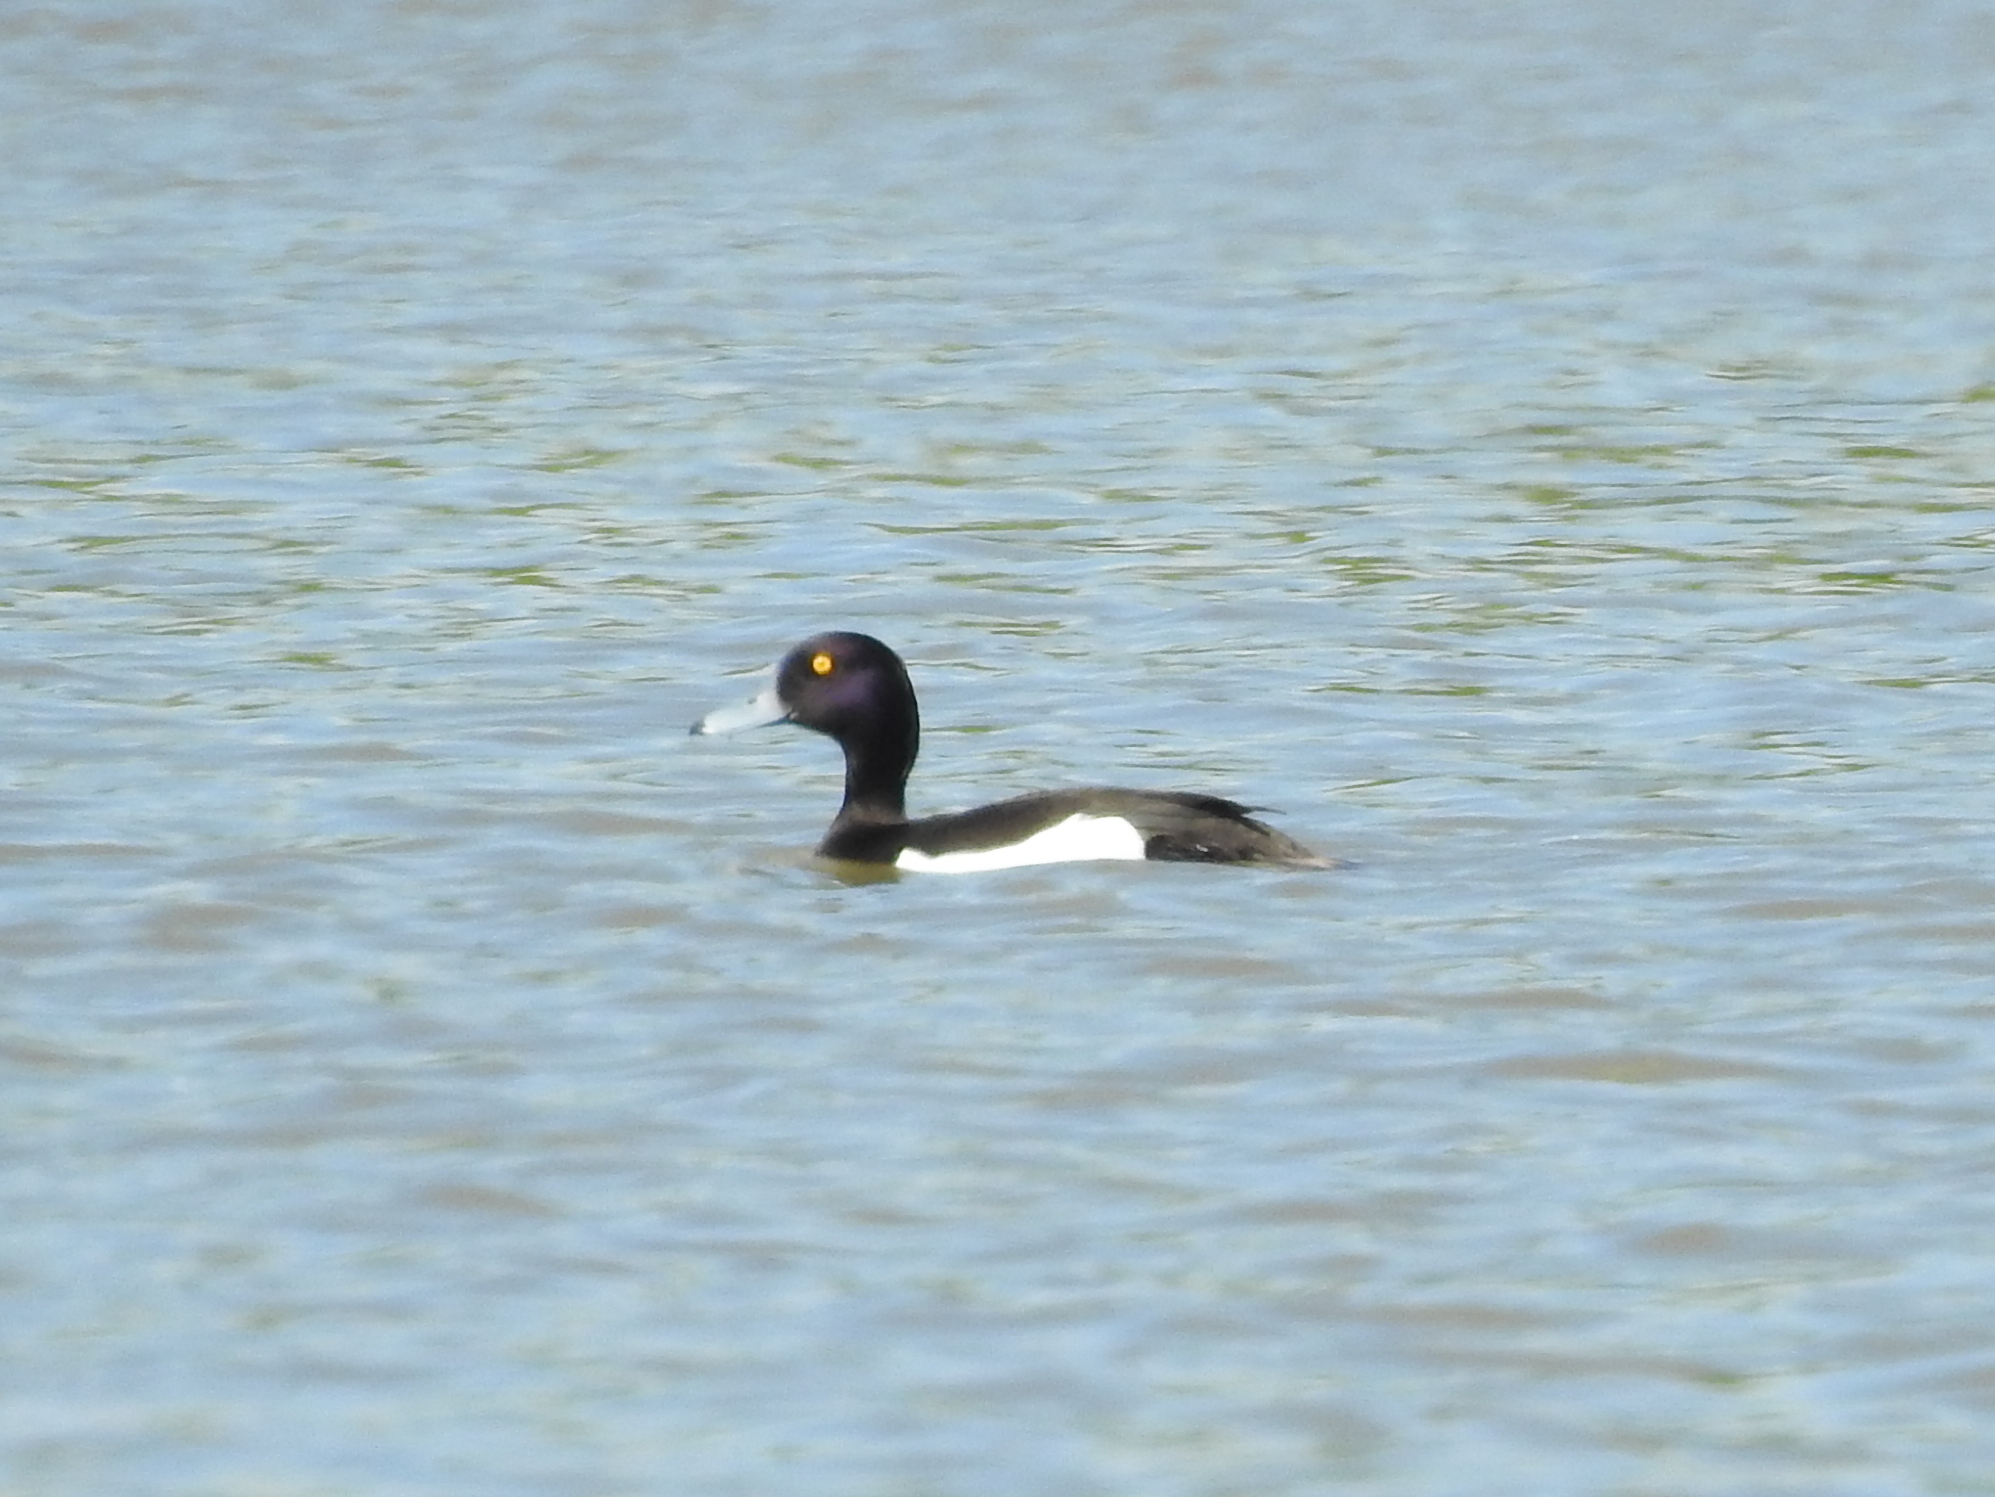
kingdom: Animalia
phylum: Chordata
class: Aves
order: Anseriformes
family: Anatidae
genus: Aythya
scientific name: Aythya fuligula
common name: Tufted duck
